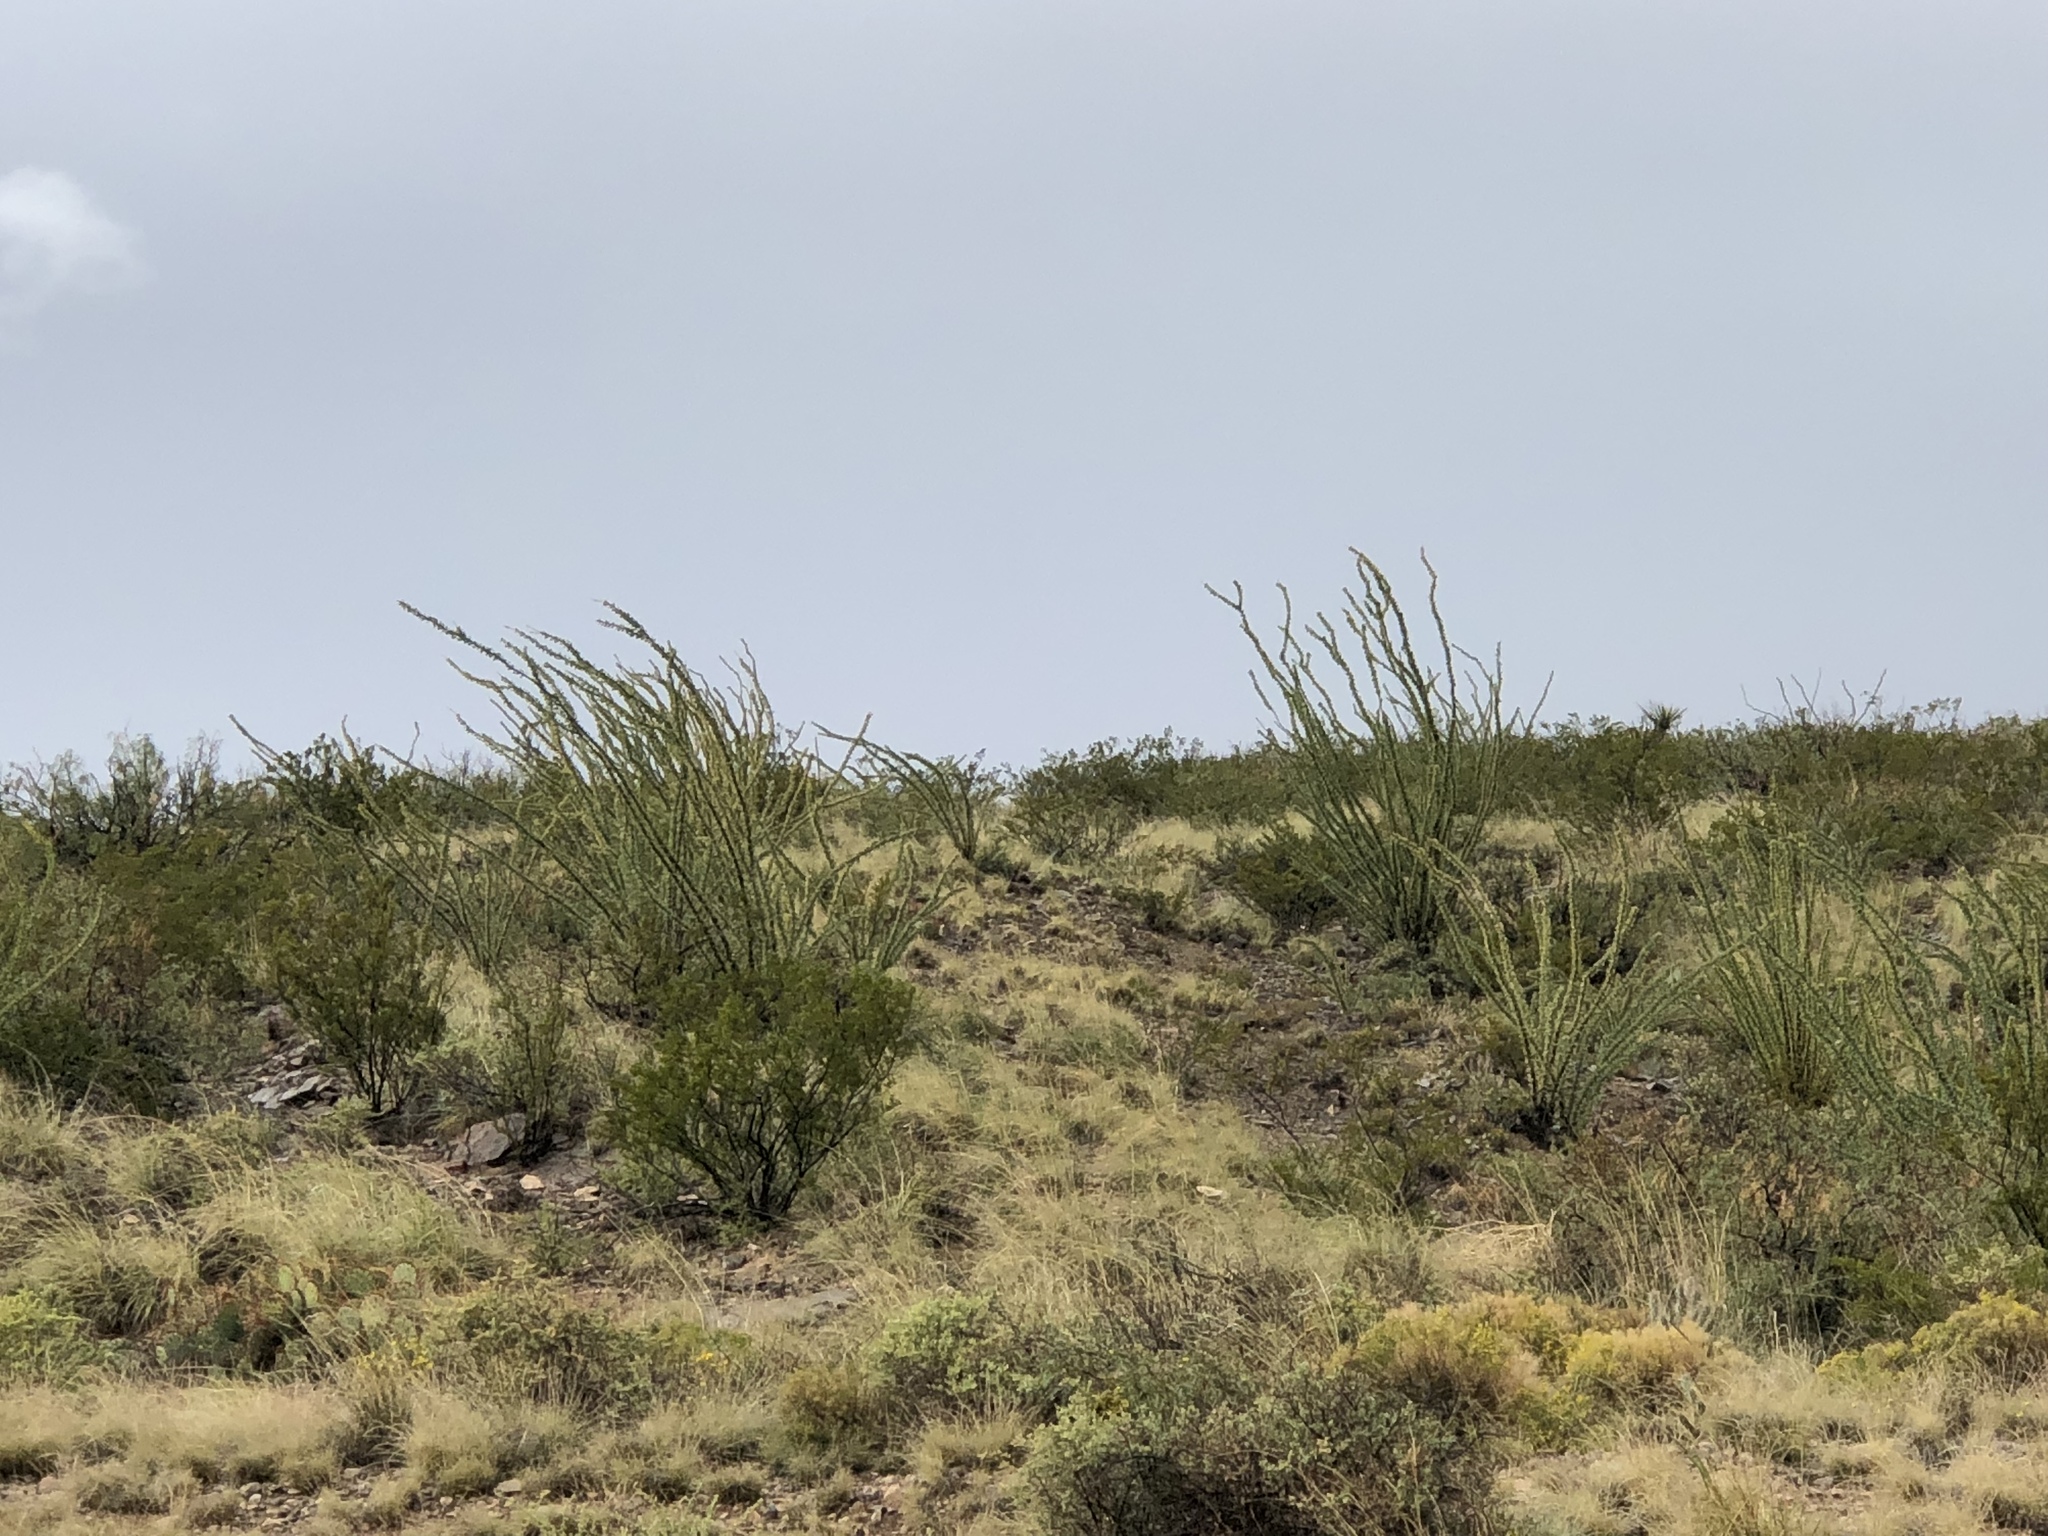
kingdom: Plantae
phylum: Tracheophyta
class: Magnoliopsida
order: Ericales
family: Fouquieriaceae
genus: Fouquieria
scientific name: Fouquieria splendens
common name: Vine-cactus
